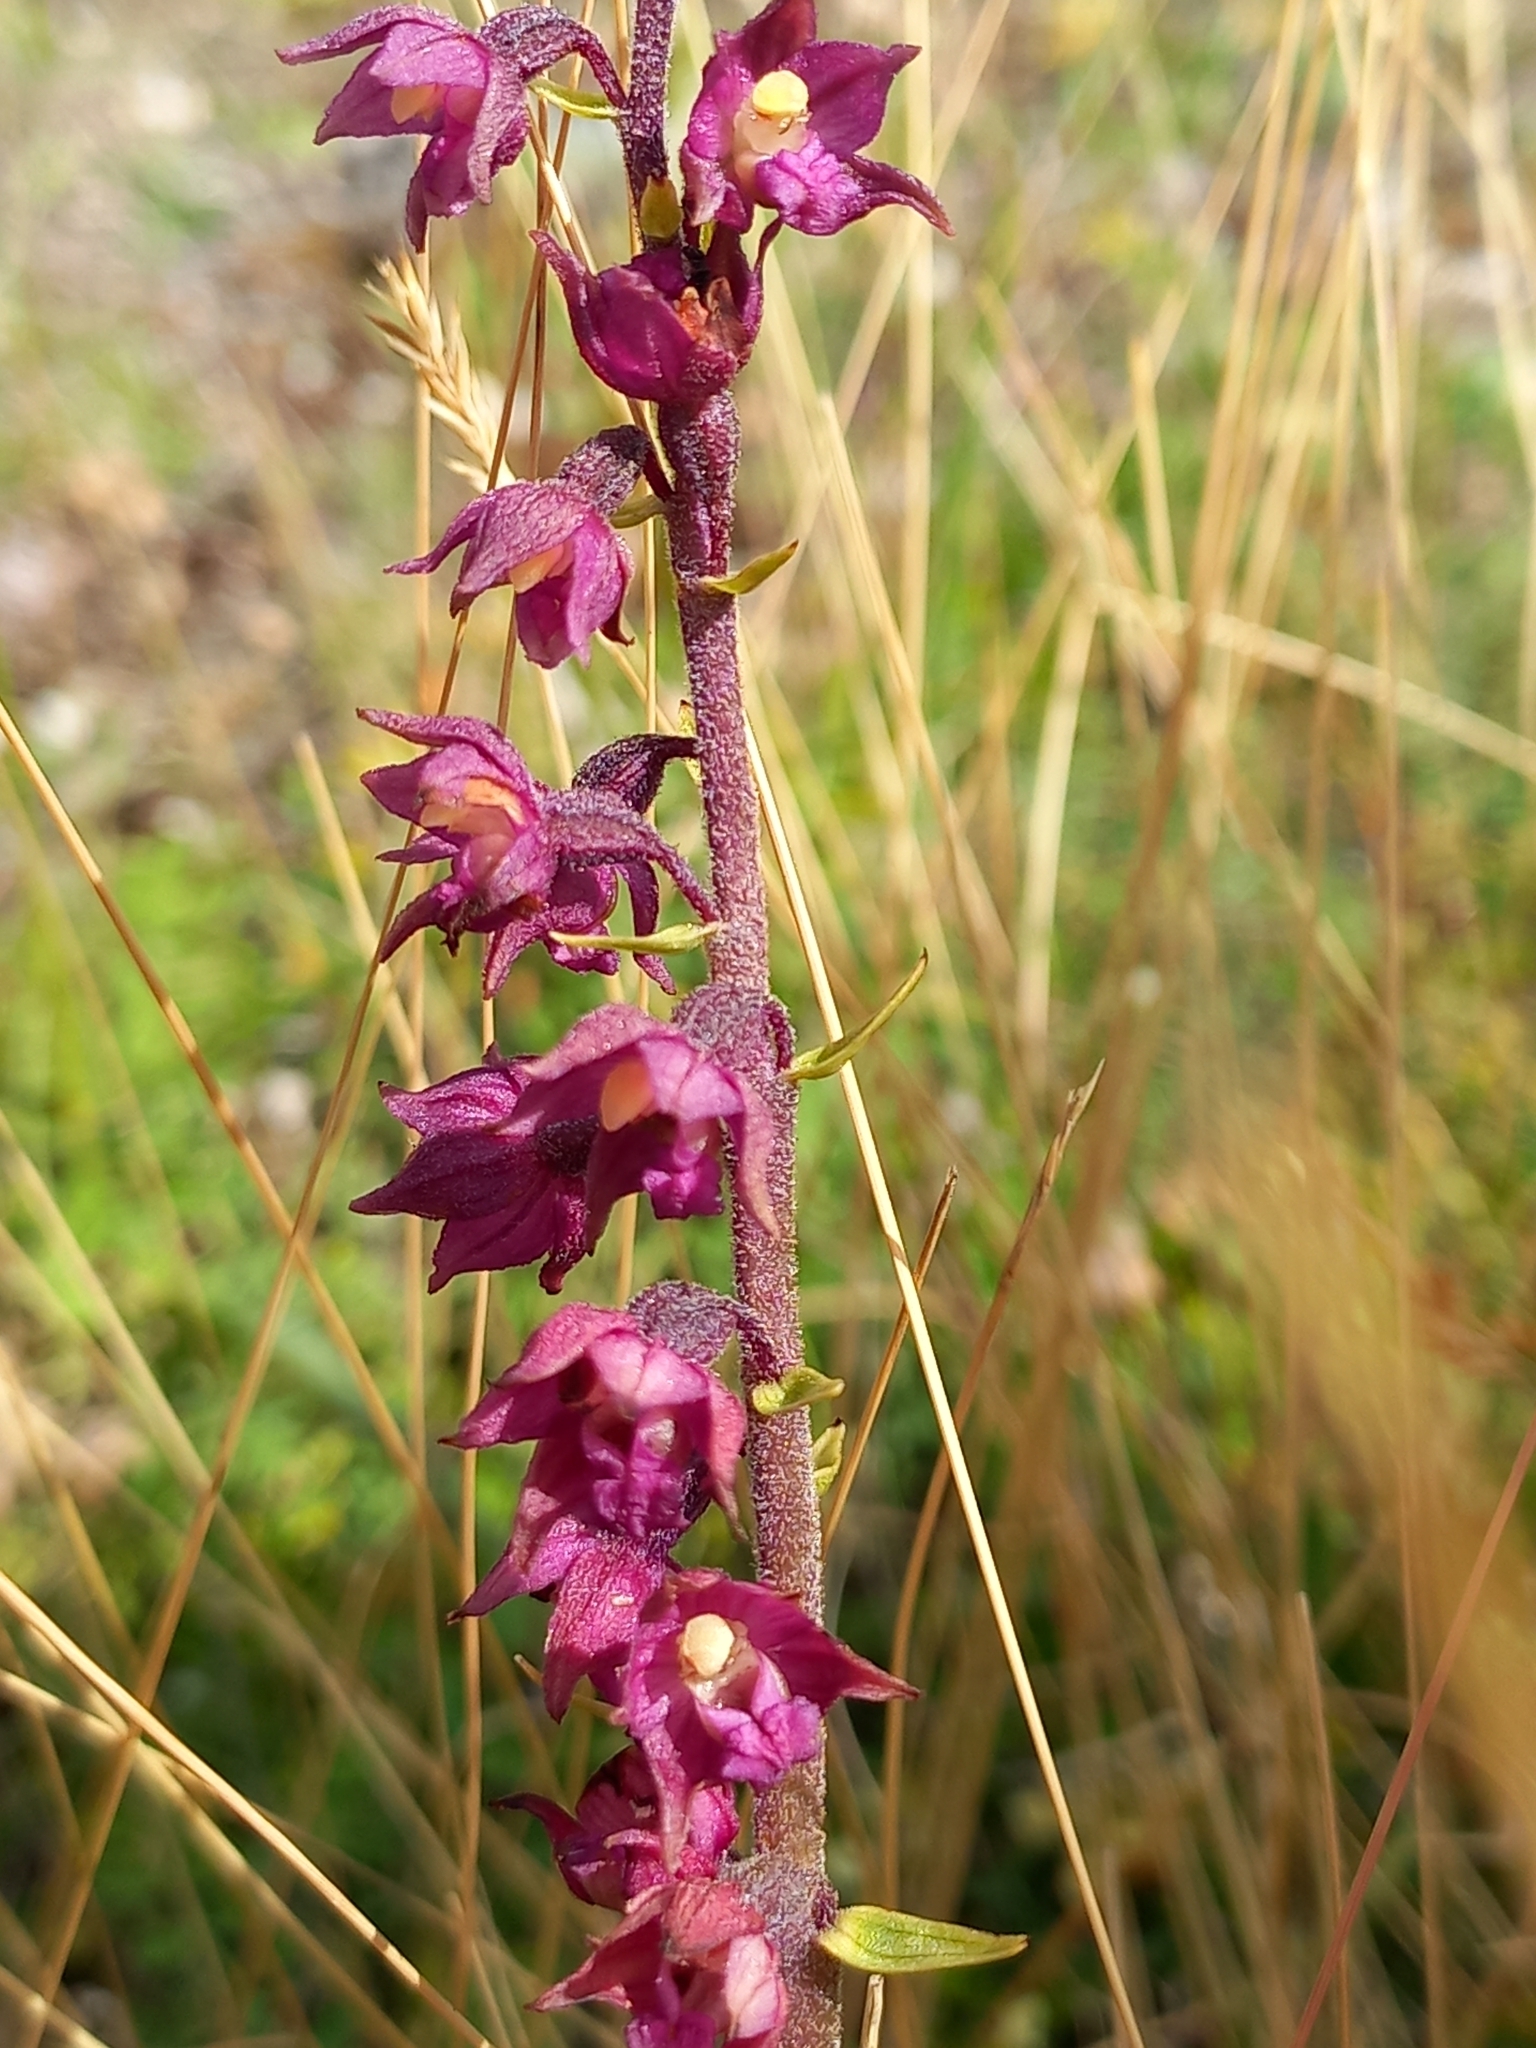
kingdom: Plantae
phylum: Tracheophyta
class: Liliopsida
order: Asparagales
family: Orchidaceae
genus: Epipactis
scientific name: Epipactis atrorubens
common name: Dark-red helleborine
